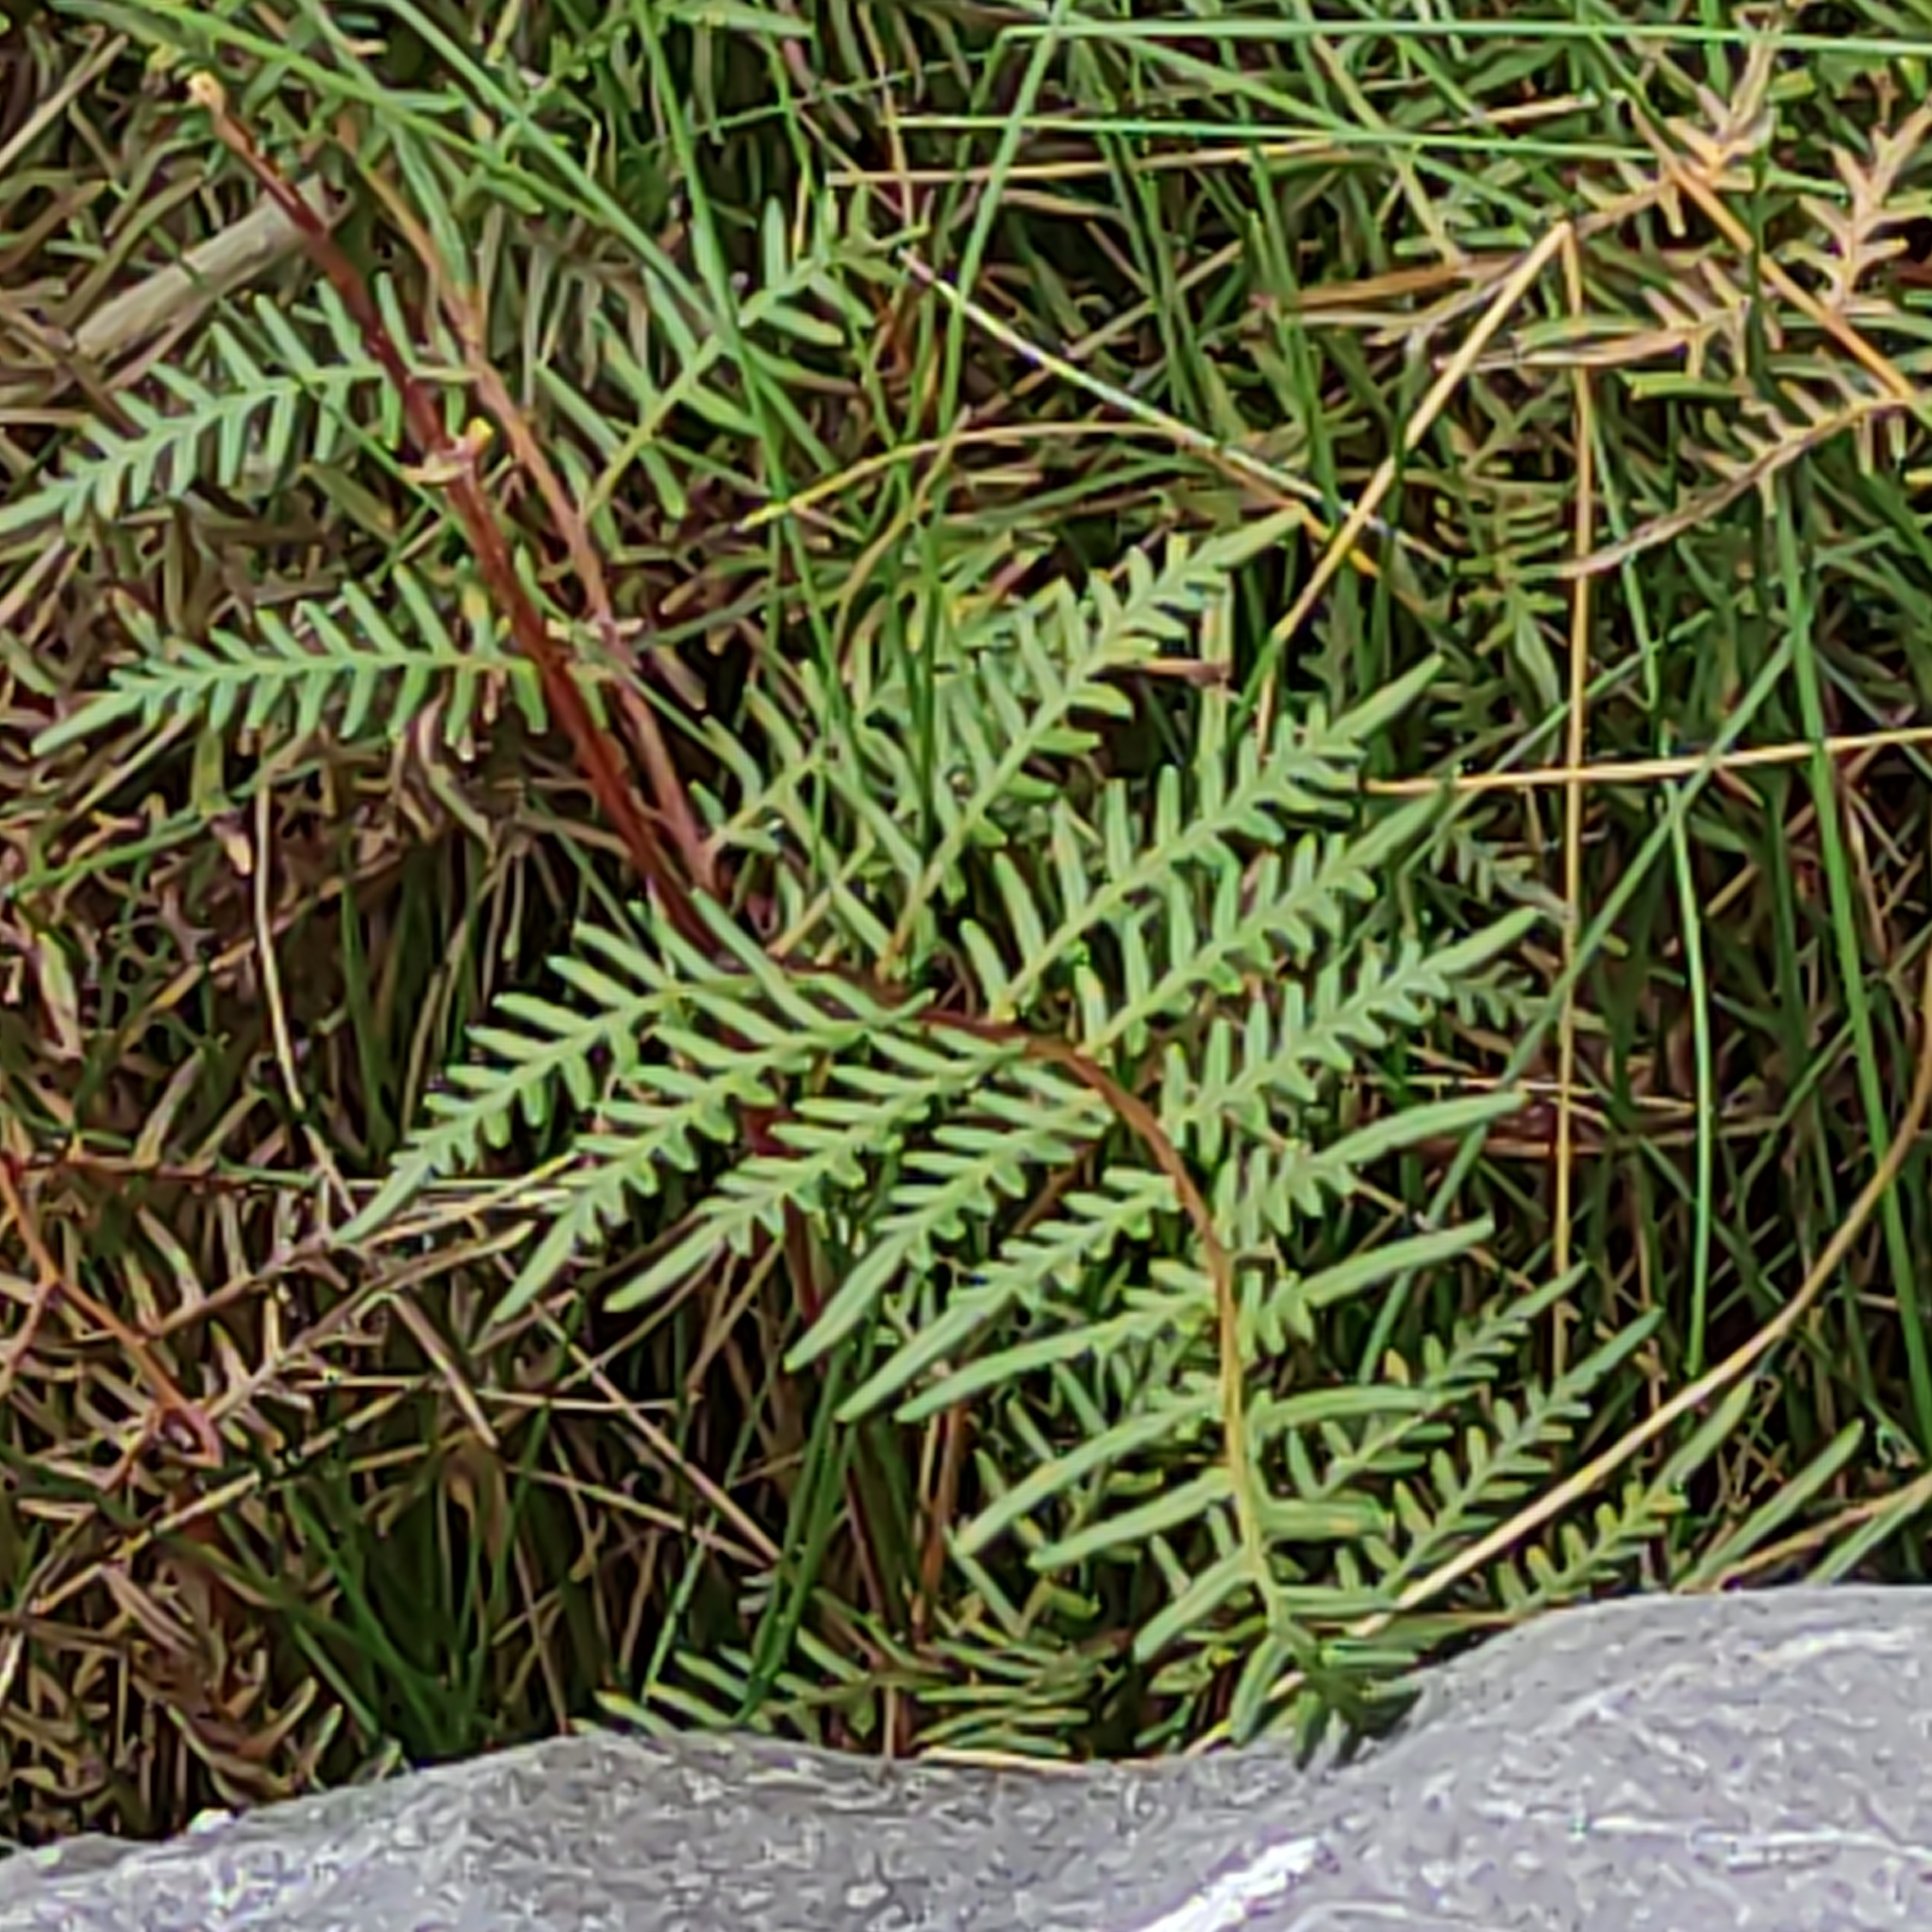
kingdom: Plantae
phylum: Tracheophyta
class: Polypodiopsida
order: Polypodiales
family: Dennstaedtiaceae
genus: Pteridium
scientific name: Pteridium esculentum
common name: Bracken fern
